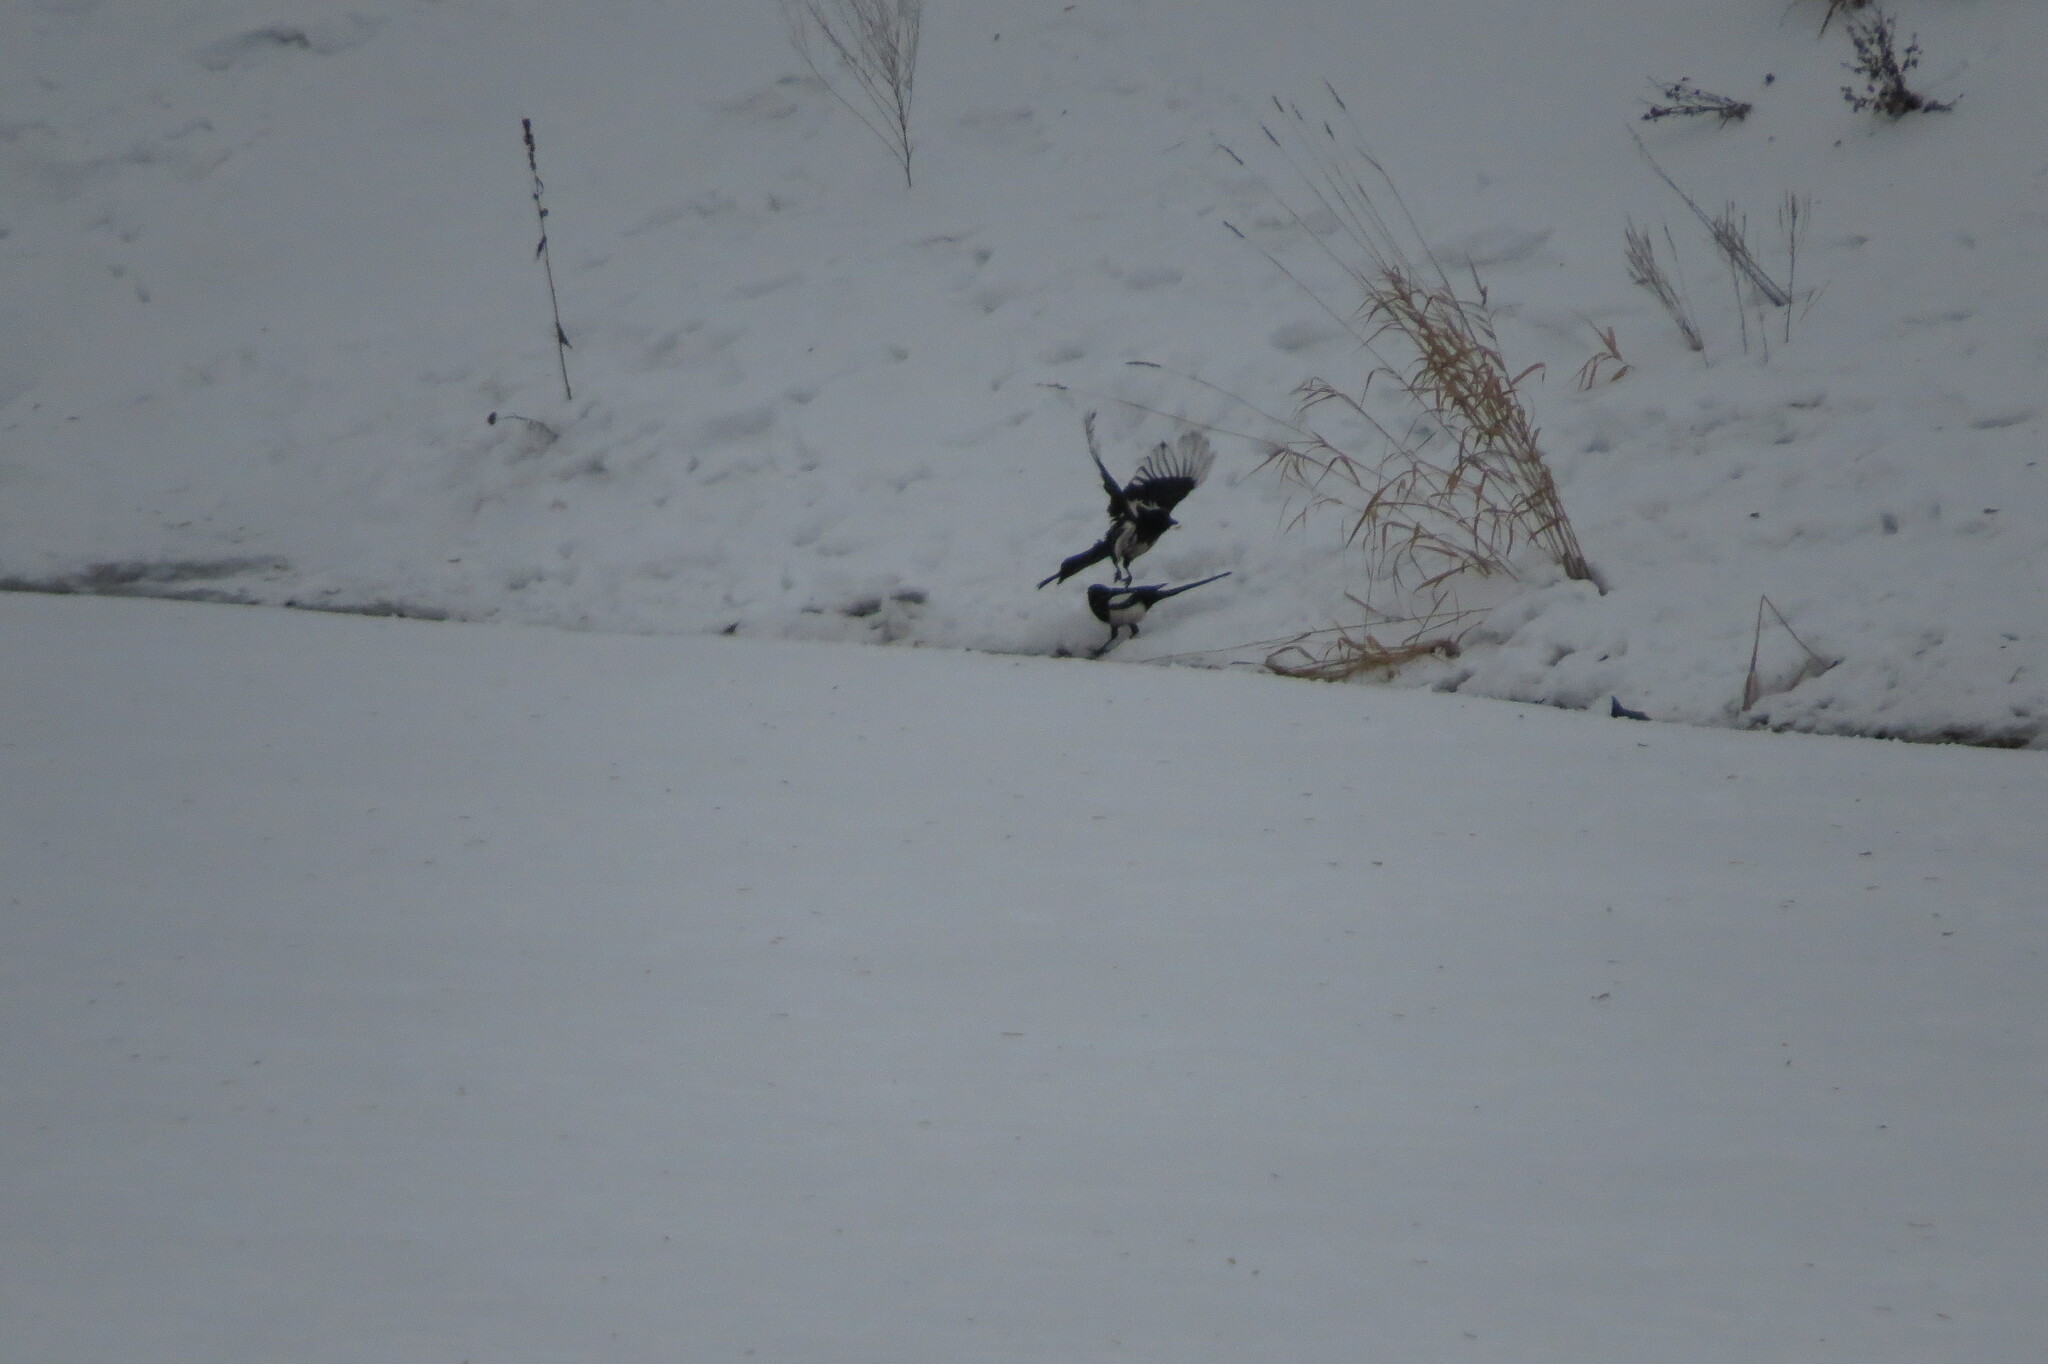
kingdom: Animalia
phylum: Chordata
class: Aves
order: Passeriformes
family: Corvidae
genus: Pica
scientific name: Pica pica
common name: Eurasian magpie
